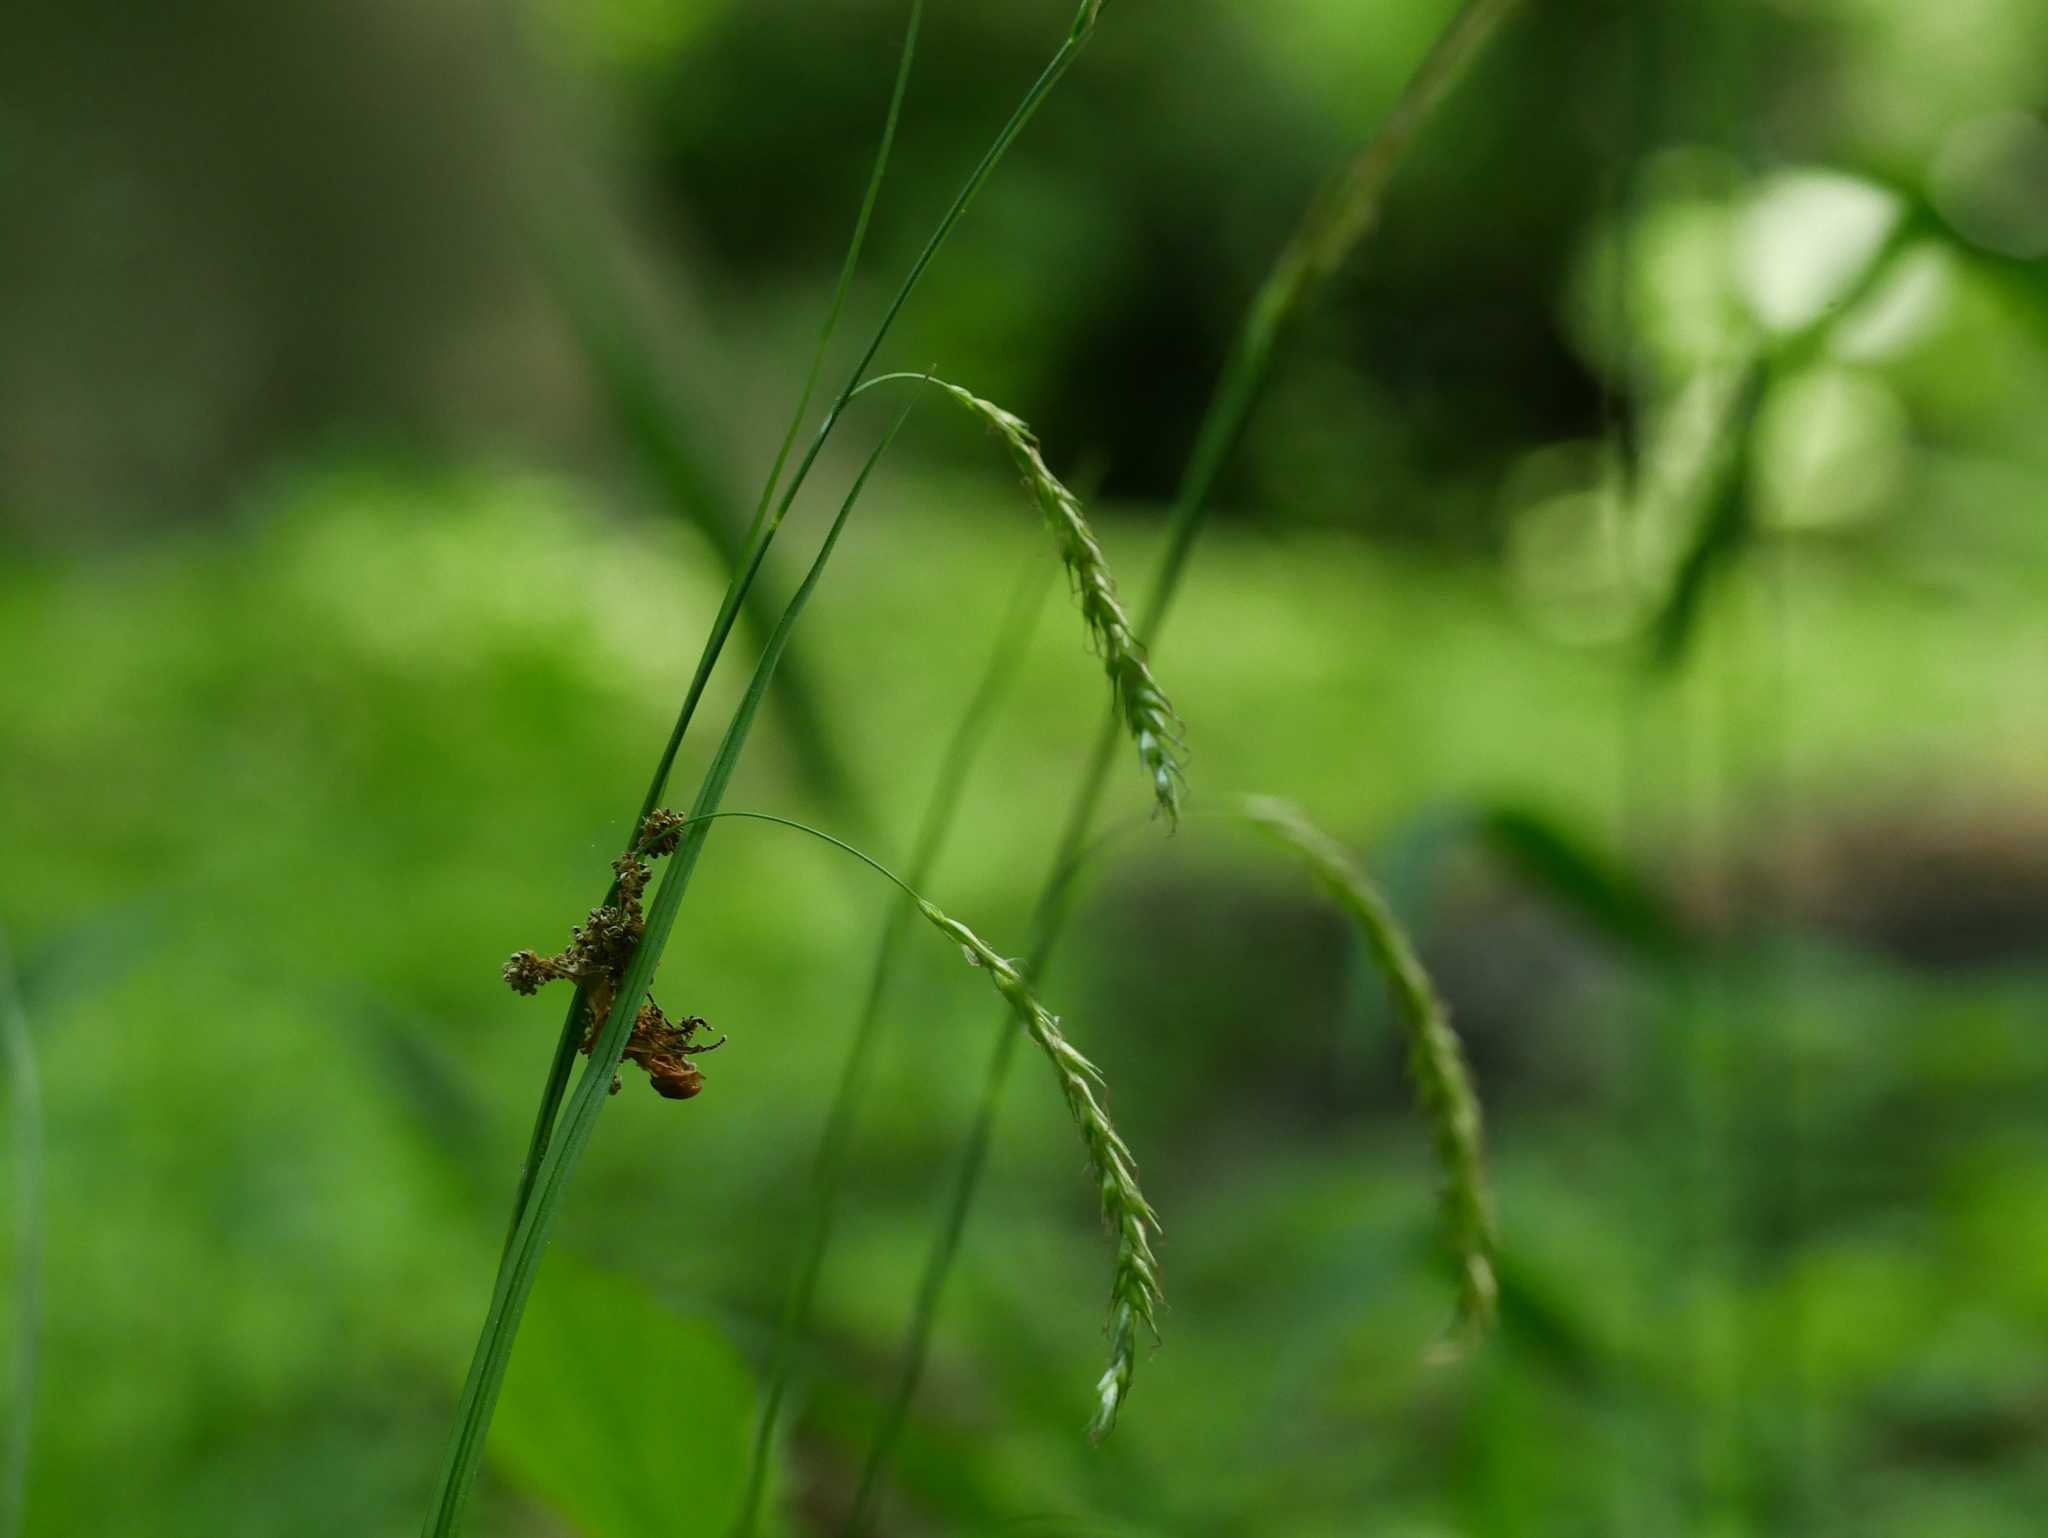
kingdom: Plantae
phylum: Tracheophyta
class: Liliopsida
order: Poales
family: Cyperaceae
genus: Carex
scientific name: Carex sylvatica
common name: Wood-sedge
